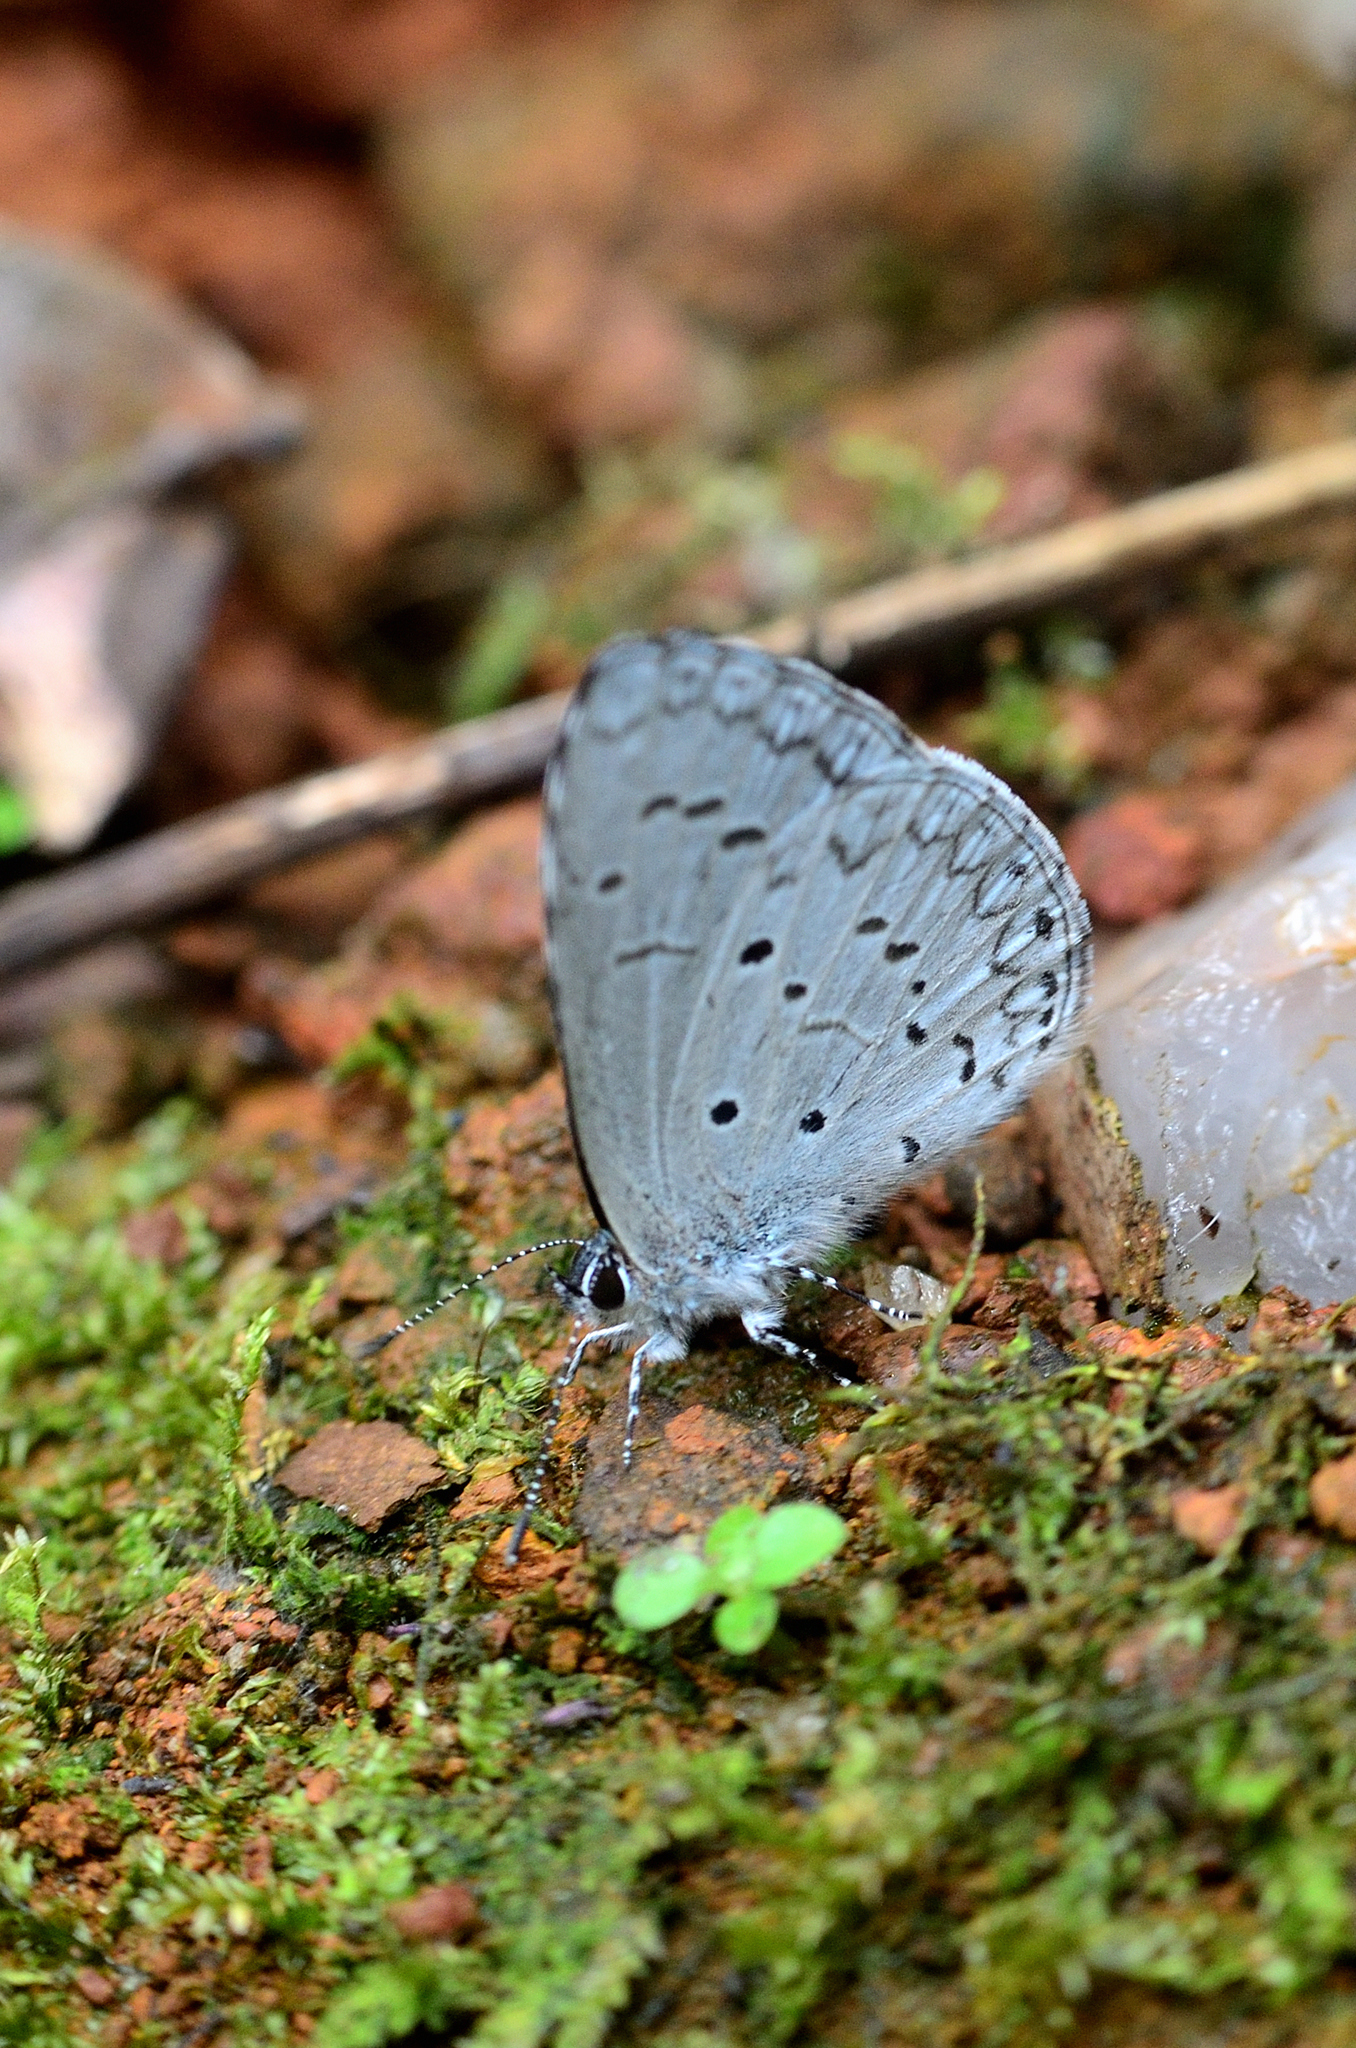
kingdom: Animalia
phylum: Arthropoda
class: Insecta
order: Lepidoptera
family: Lycaenidae
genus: Celastrina
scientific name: Celastrina lavendularis
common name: Plain hedge blue
